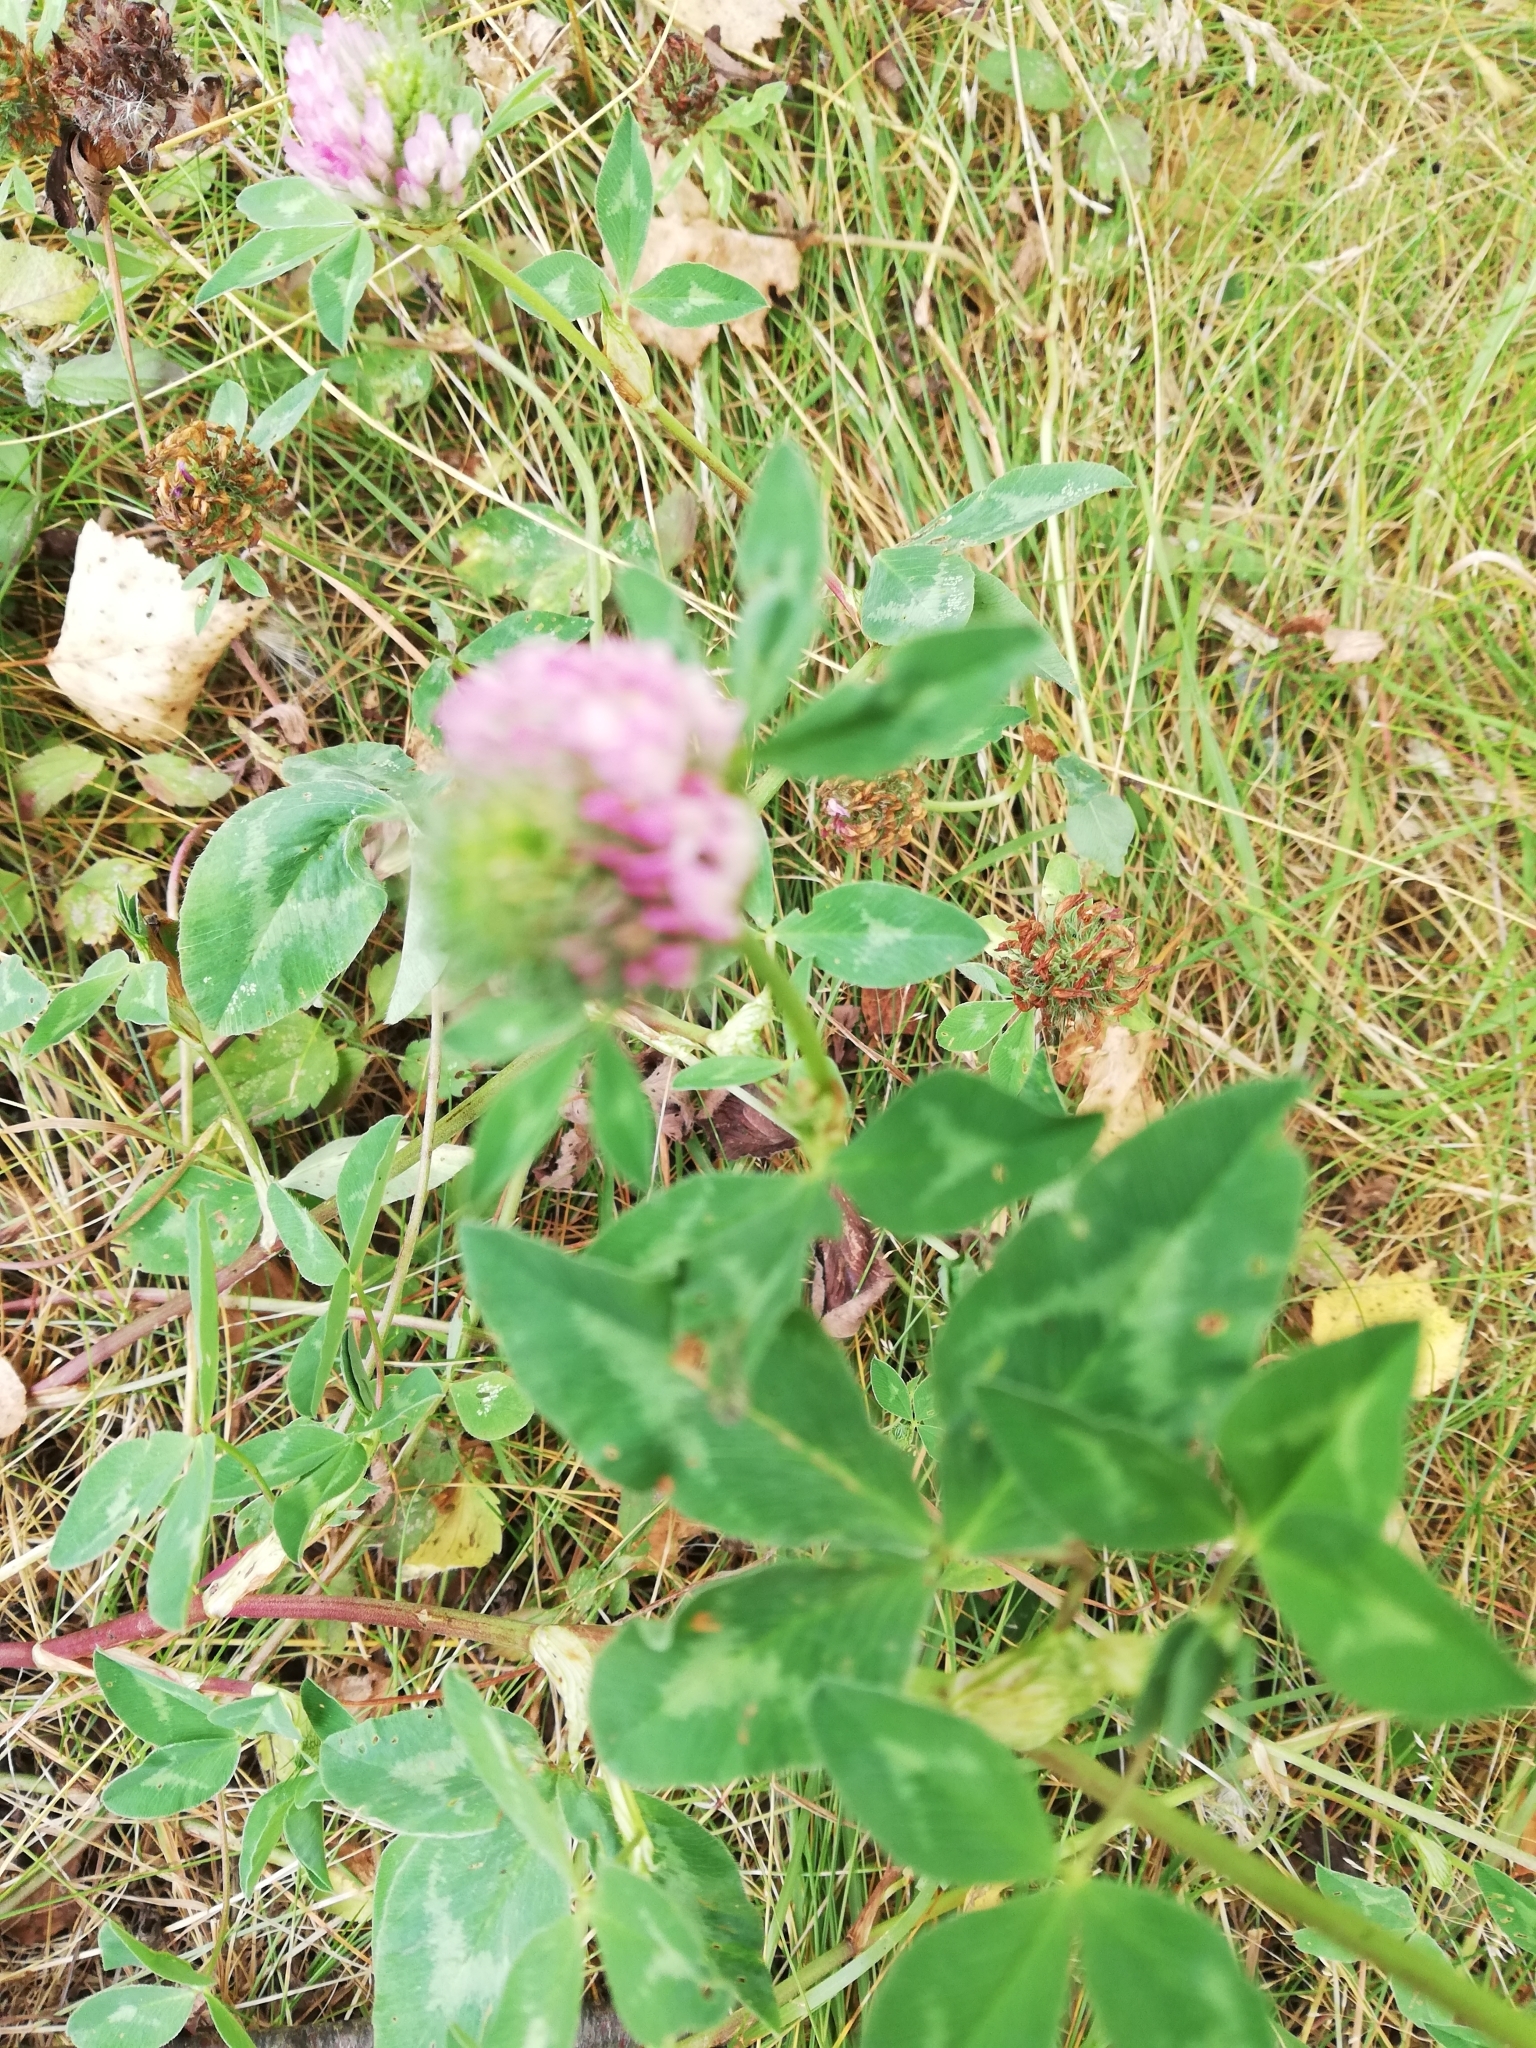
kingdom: Plantae
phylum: Tracheophyta
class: Magnoliopsida
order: Fabales
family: Fabaceae
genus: Trifolium
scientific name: Trifolium pratense
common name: Red clover
